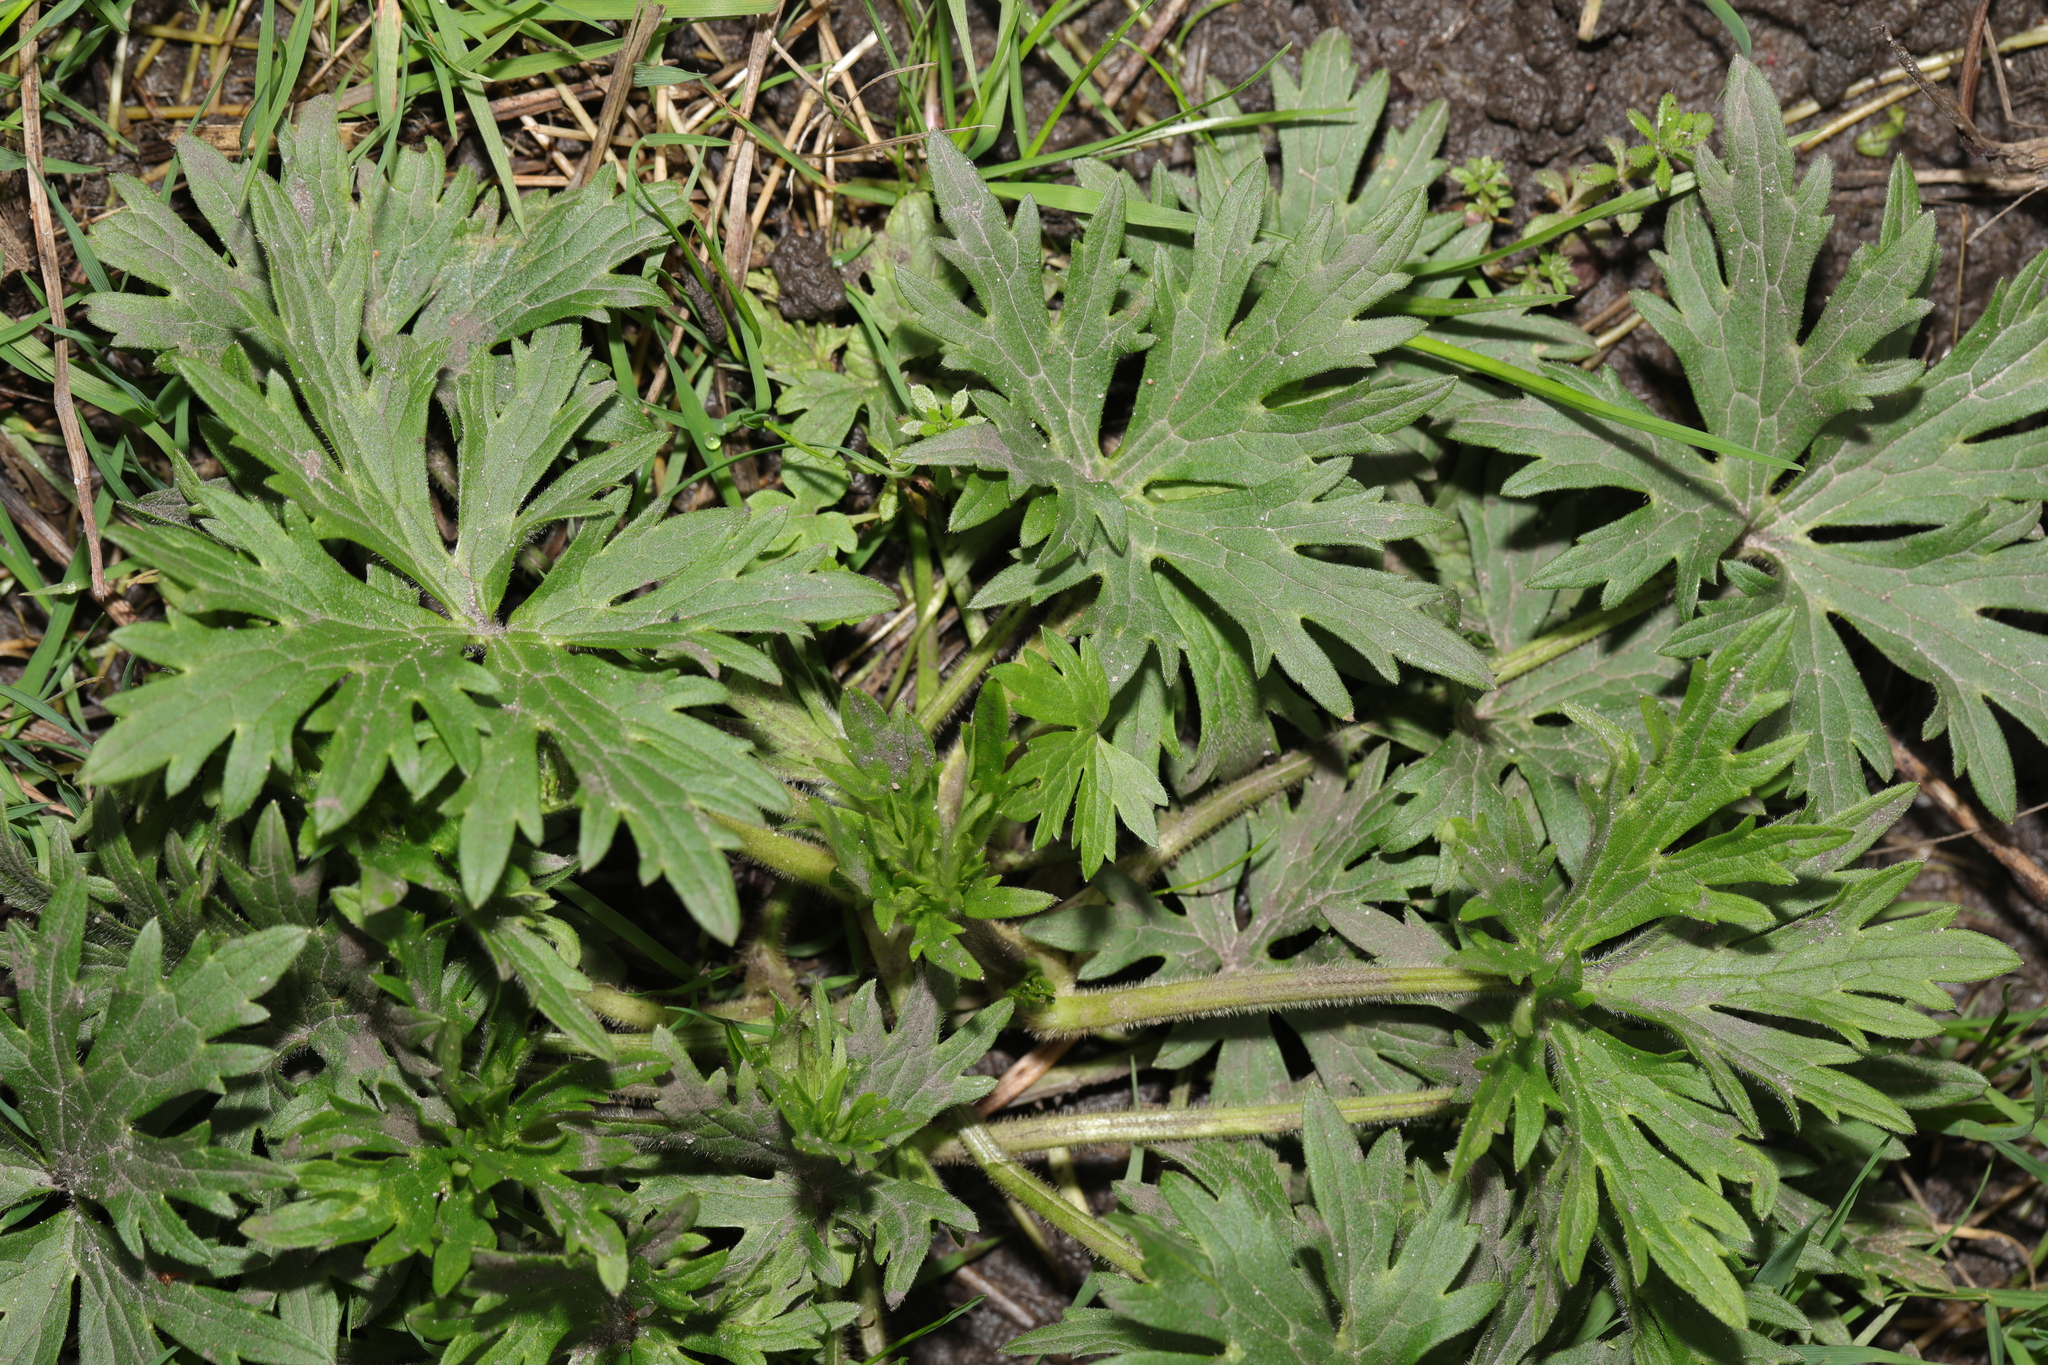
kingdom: Plantae
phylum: Tracheophyta
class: Magnoliopsida
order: Ranunculales
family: Ranunculaceae
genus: Ranunculus
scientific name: Ranunculus acris
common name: Meadow buttercup
